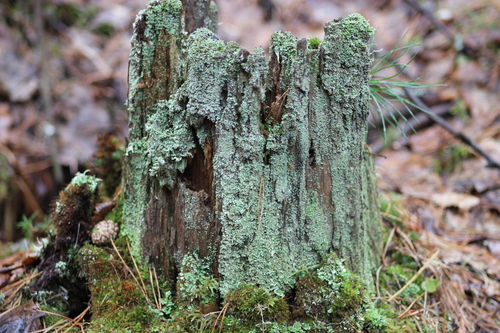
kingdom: Fungi
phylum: Ascomycota
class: Lecanoromycetes
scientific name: Lecanoromycetes
